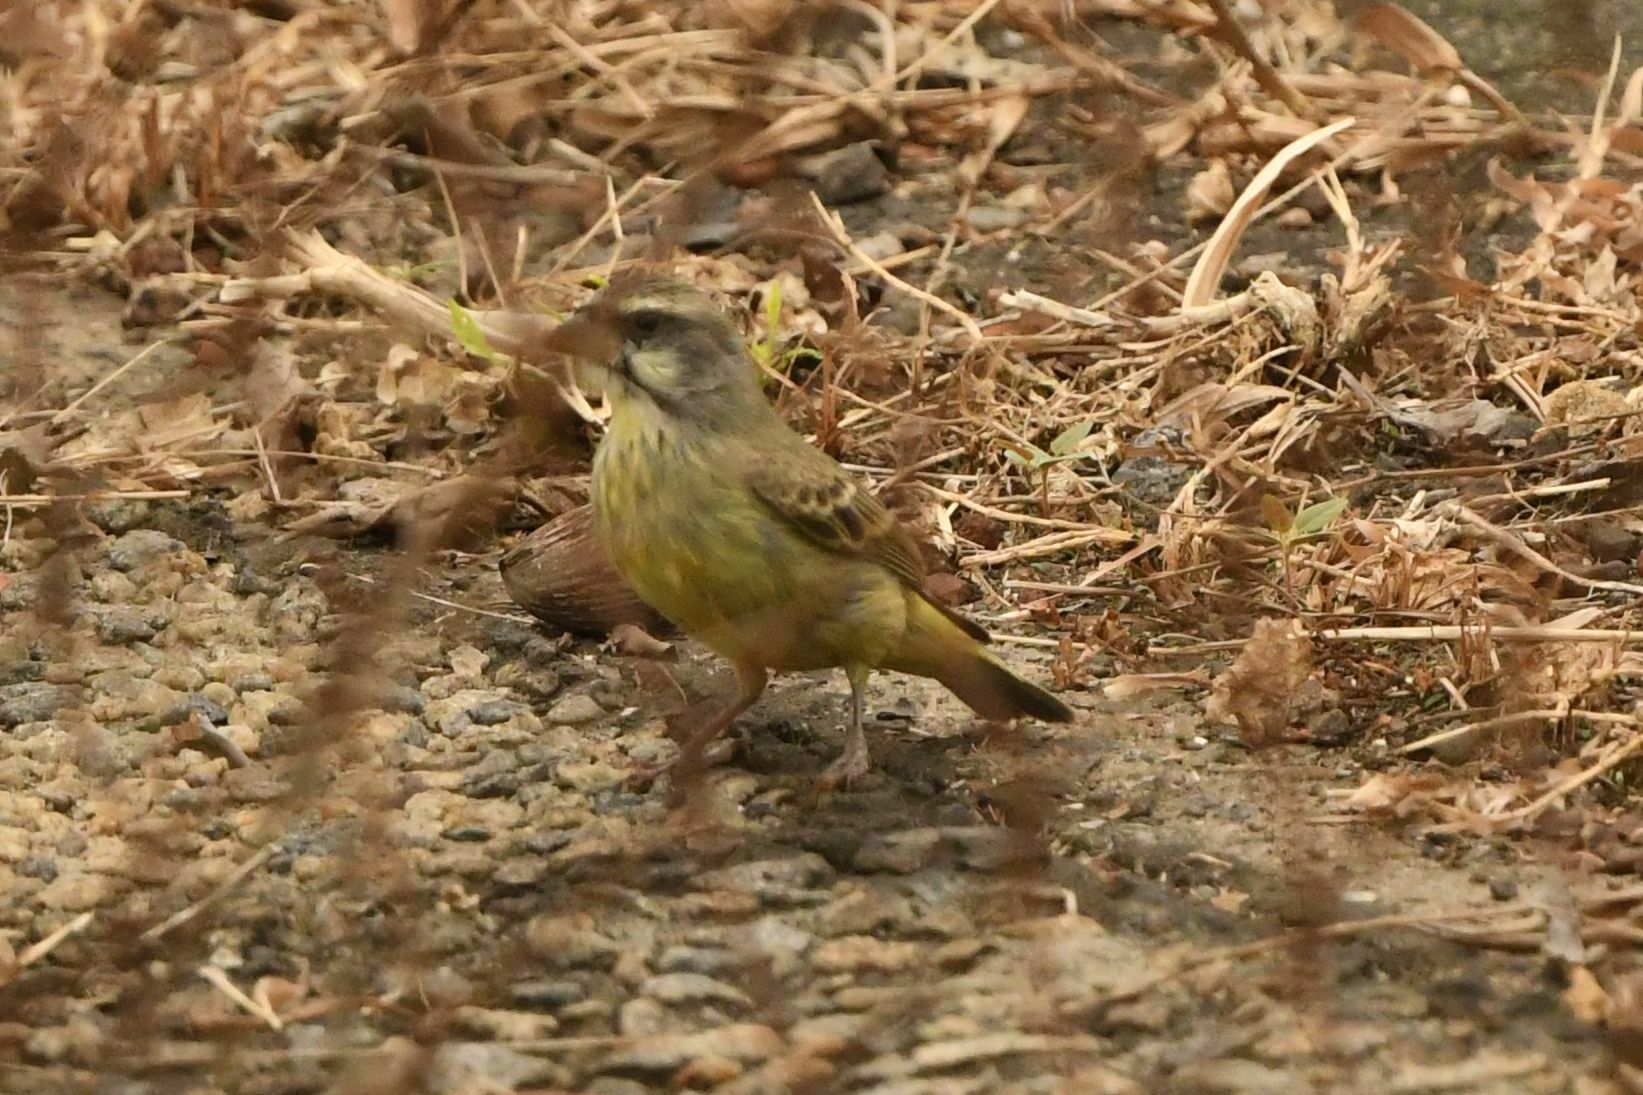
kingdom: Animalia
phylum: Chordata
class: Aves
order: Passeriformes
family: Fringillidae
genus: Crithagra
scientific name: Crithagra mozambica
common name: Yellow-fronted canary
